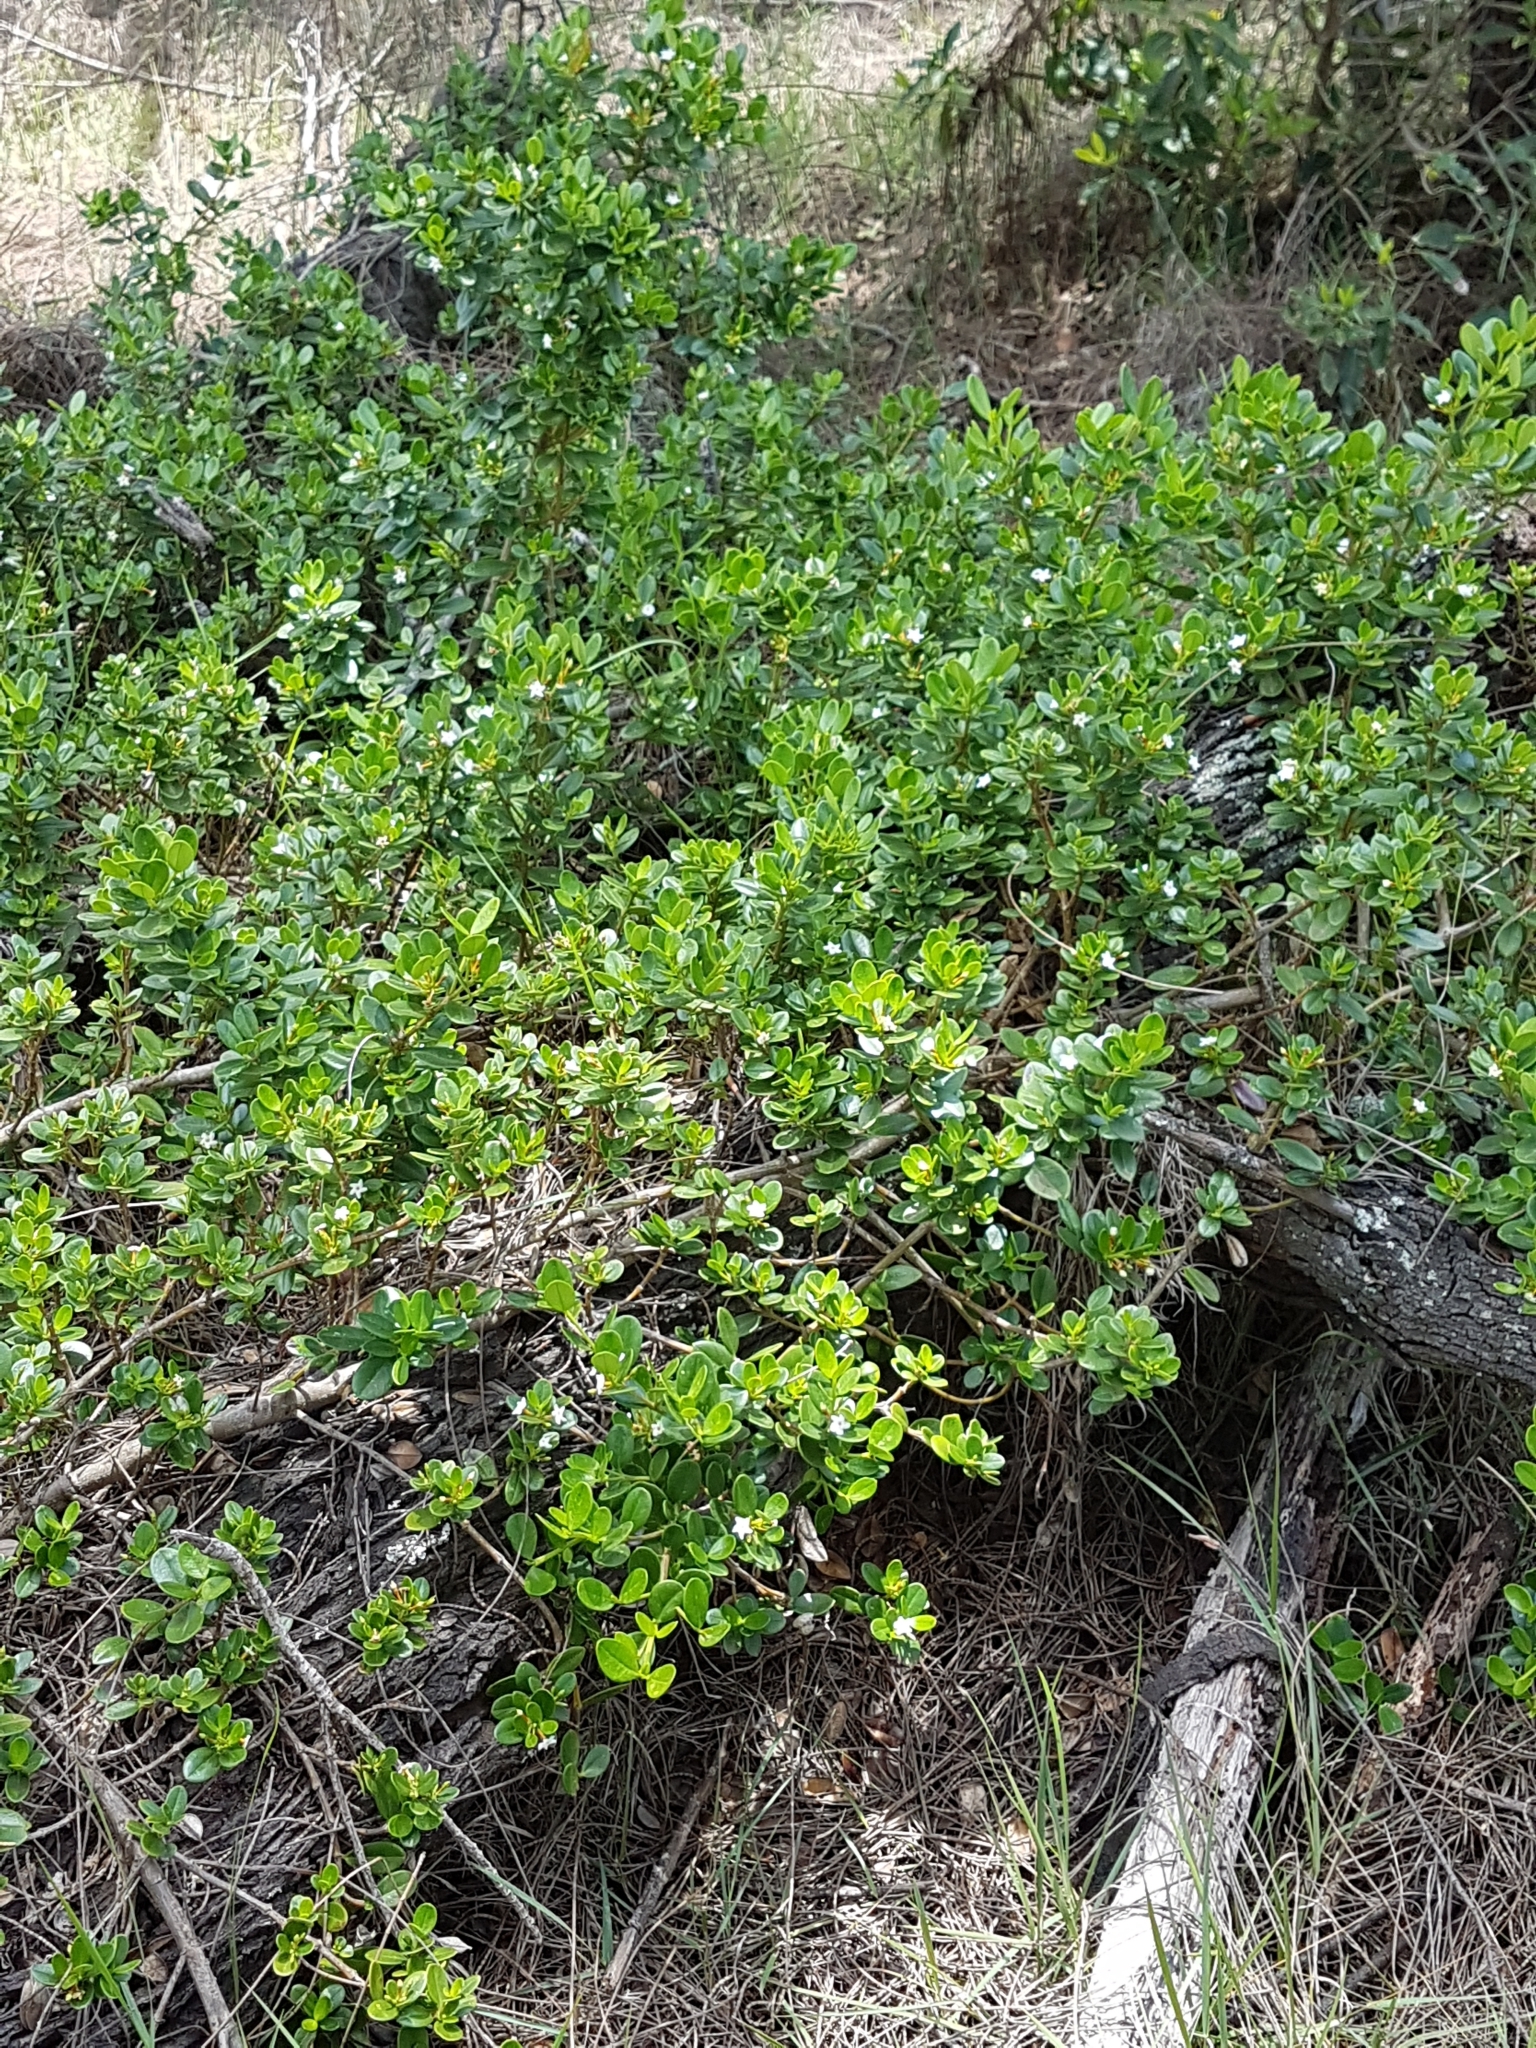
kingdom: Plantae
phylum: Tracheophyta
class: Magnoliopsida
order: Gentianales
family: Apocynaceae
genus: Alyxia
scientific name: Alyxia buxifolia
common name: Dysentery-bush
